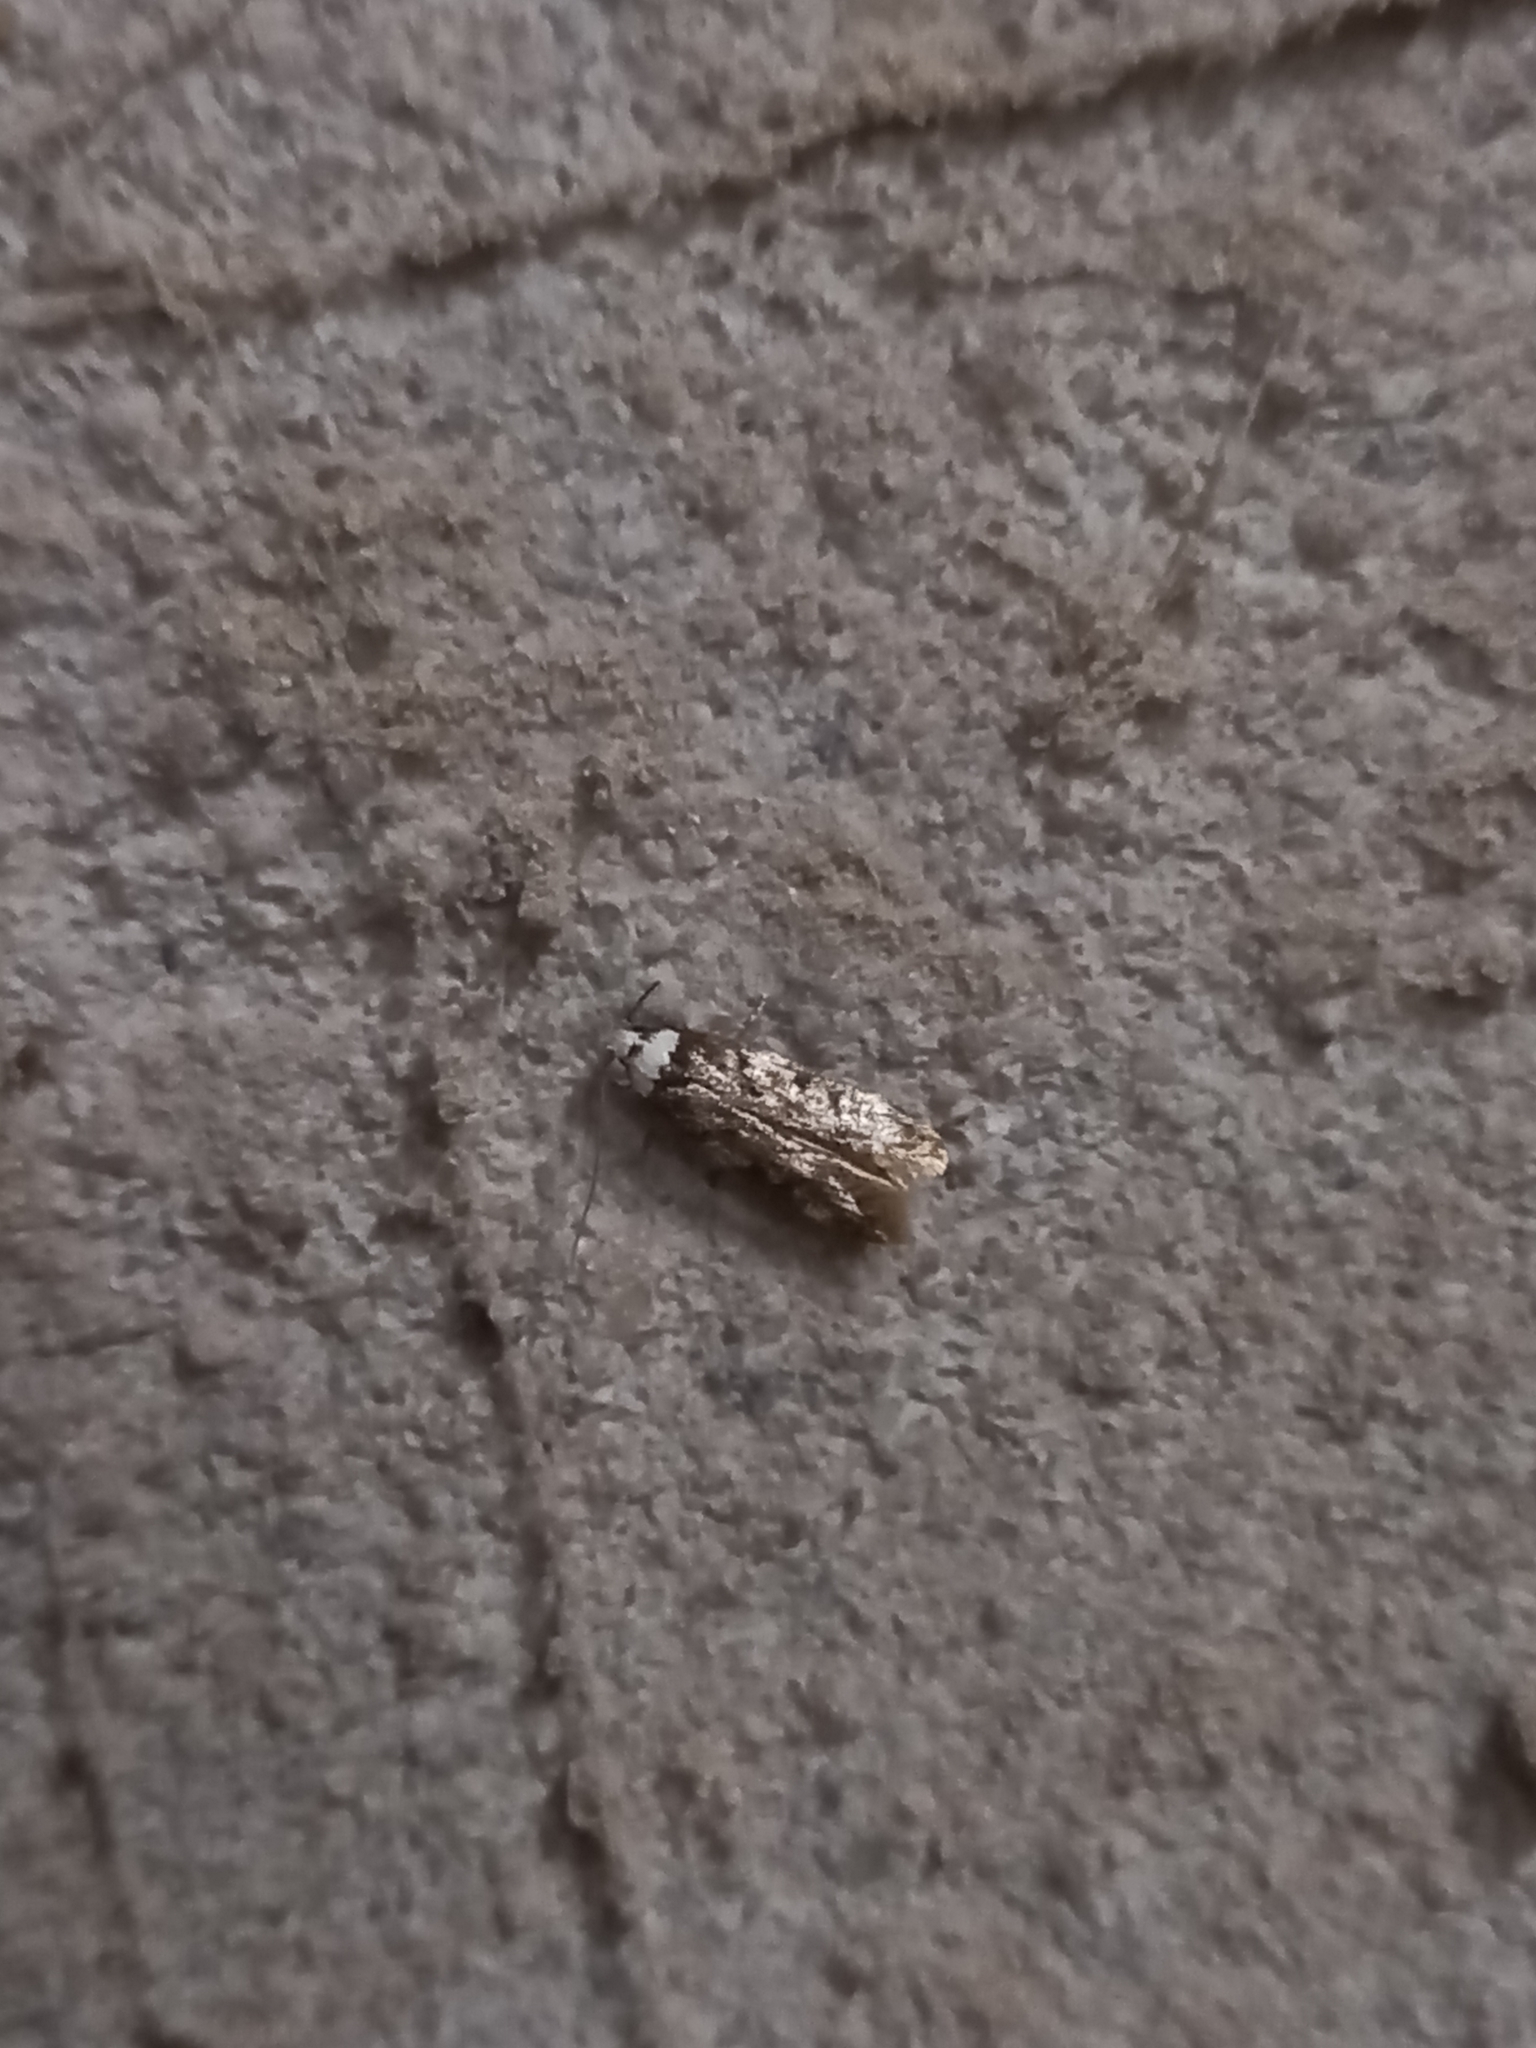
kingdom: Animalia
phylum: Arthropoda
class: Insecta
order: Lepidoptera
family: Oecophoridae
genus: Endrosis
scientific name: Endrosis sarcitrella
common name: White-shouldered house moth
